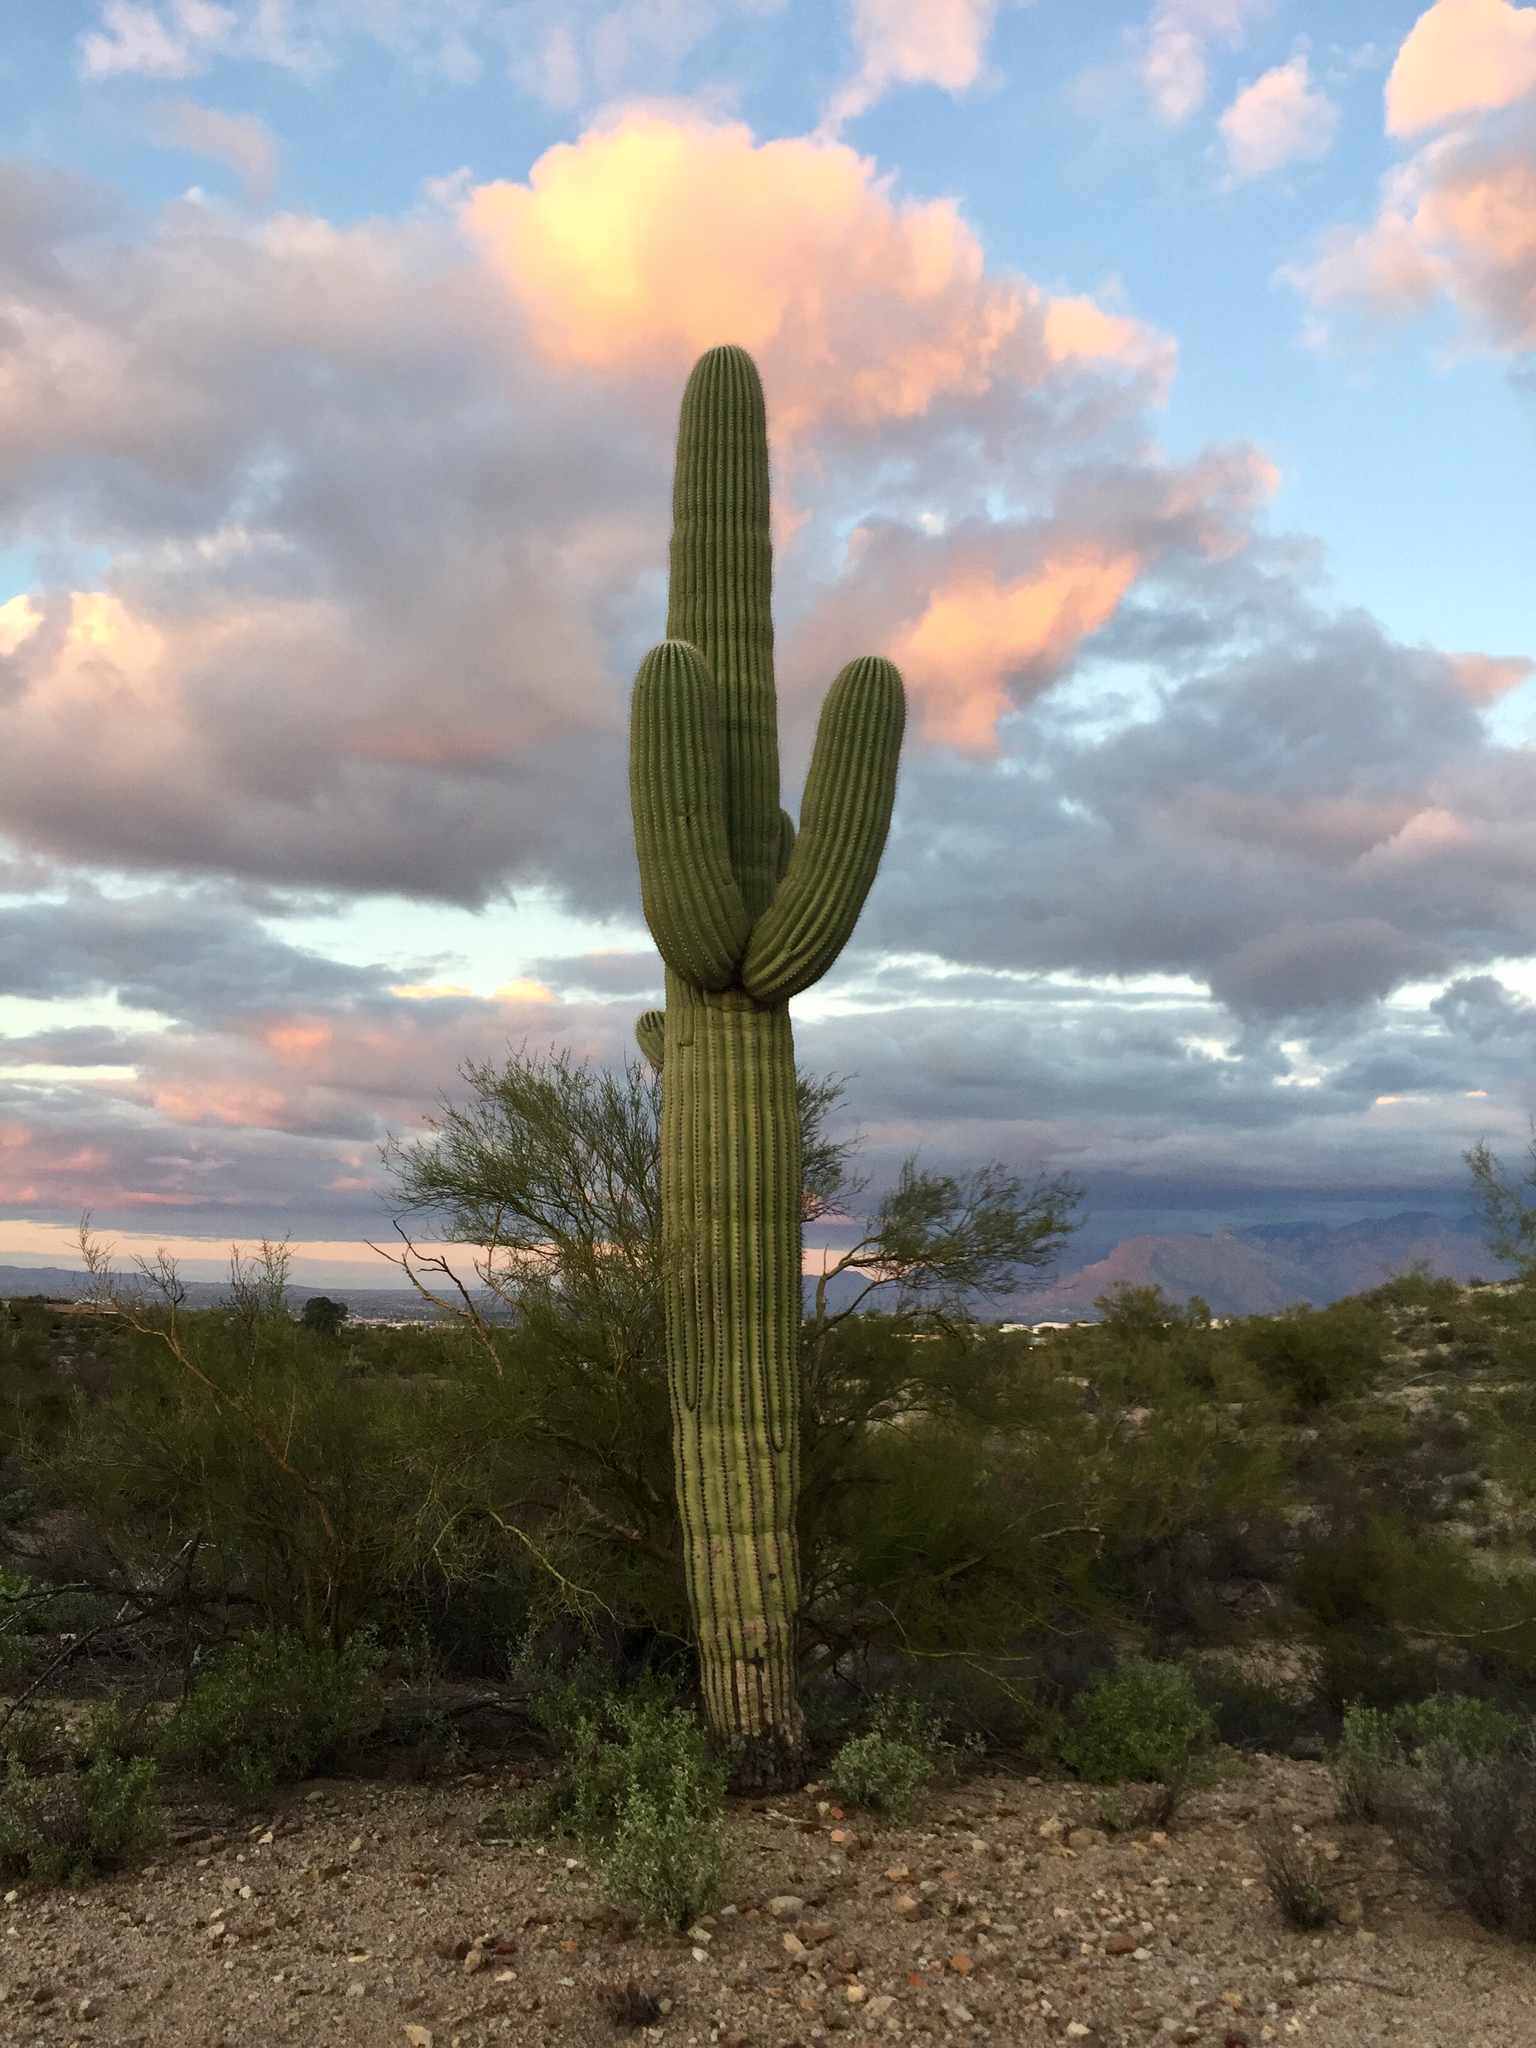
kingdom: Plantae
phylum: Tracheophyta
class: Magnoliopsida
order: Caryophyllales
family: Cactaceae
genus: Carnegiea
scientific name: Carnegiea gigantea
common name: Saguaro
